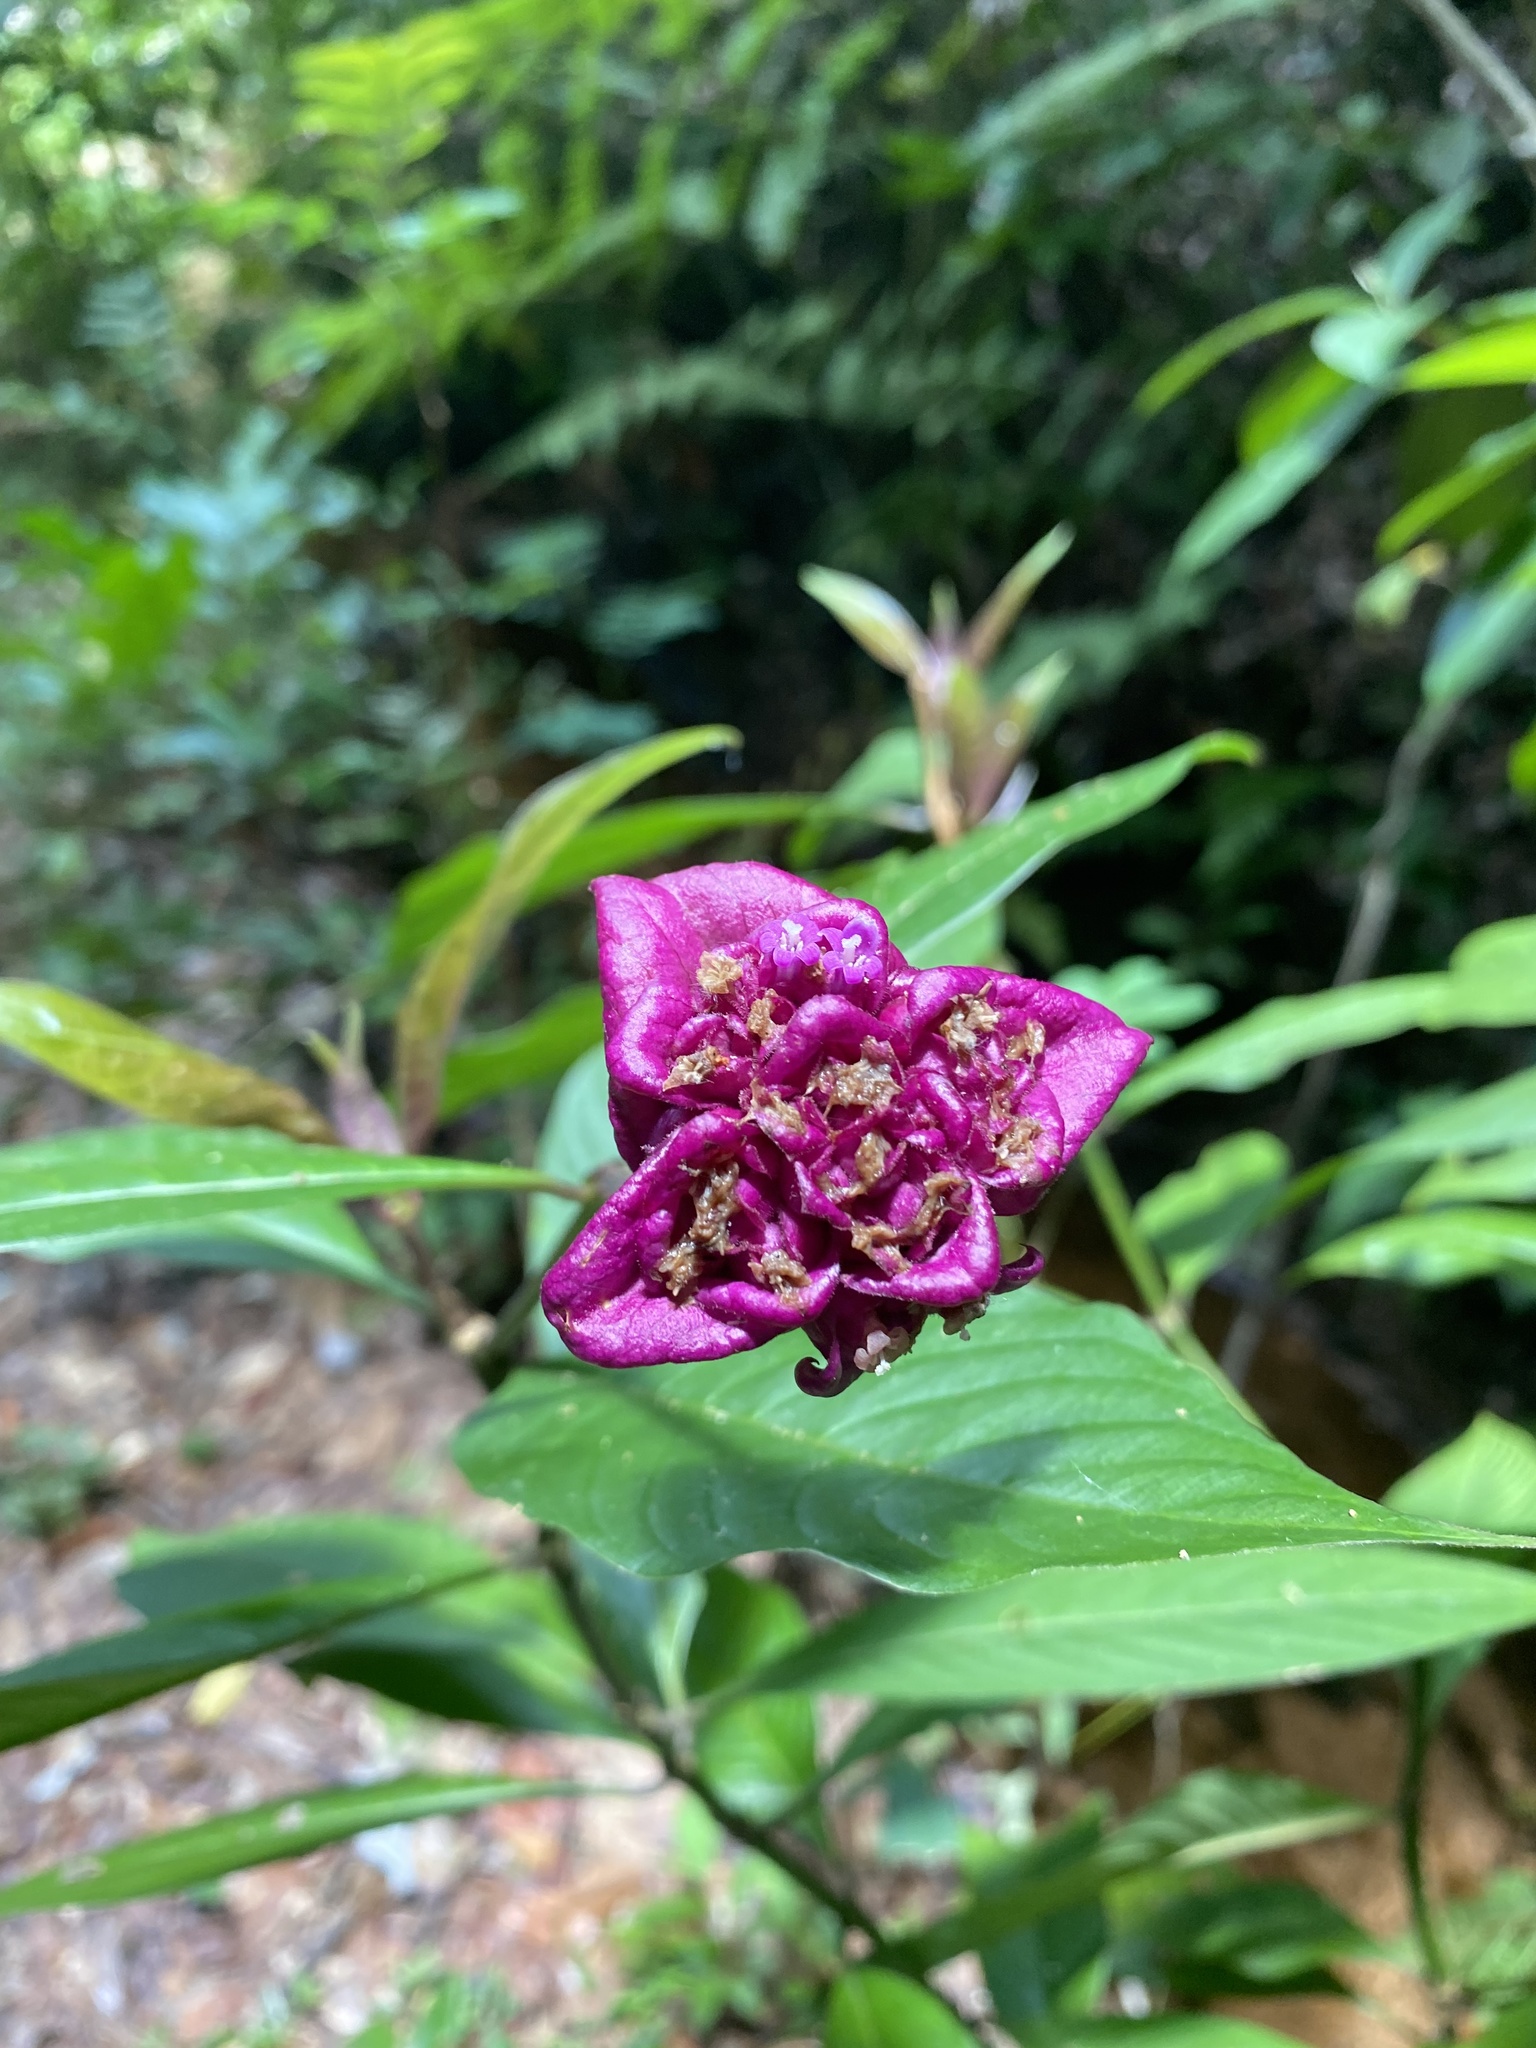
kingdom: Plantae
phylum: Tracheophyta
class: Magnoliopsida
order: Gentianales
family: Rubiaceae
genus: Palicourea
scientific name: Palicourea colorata
